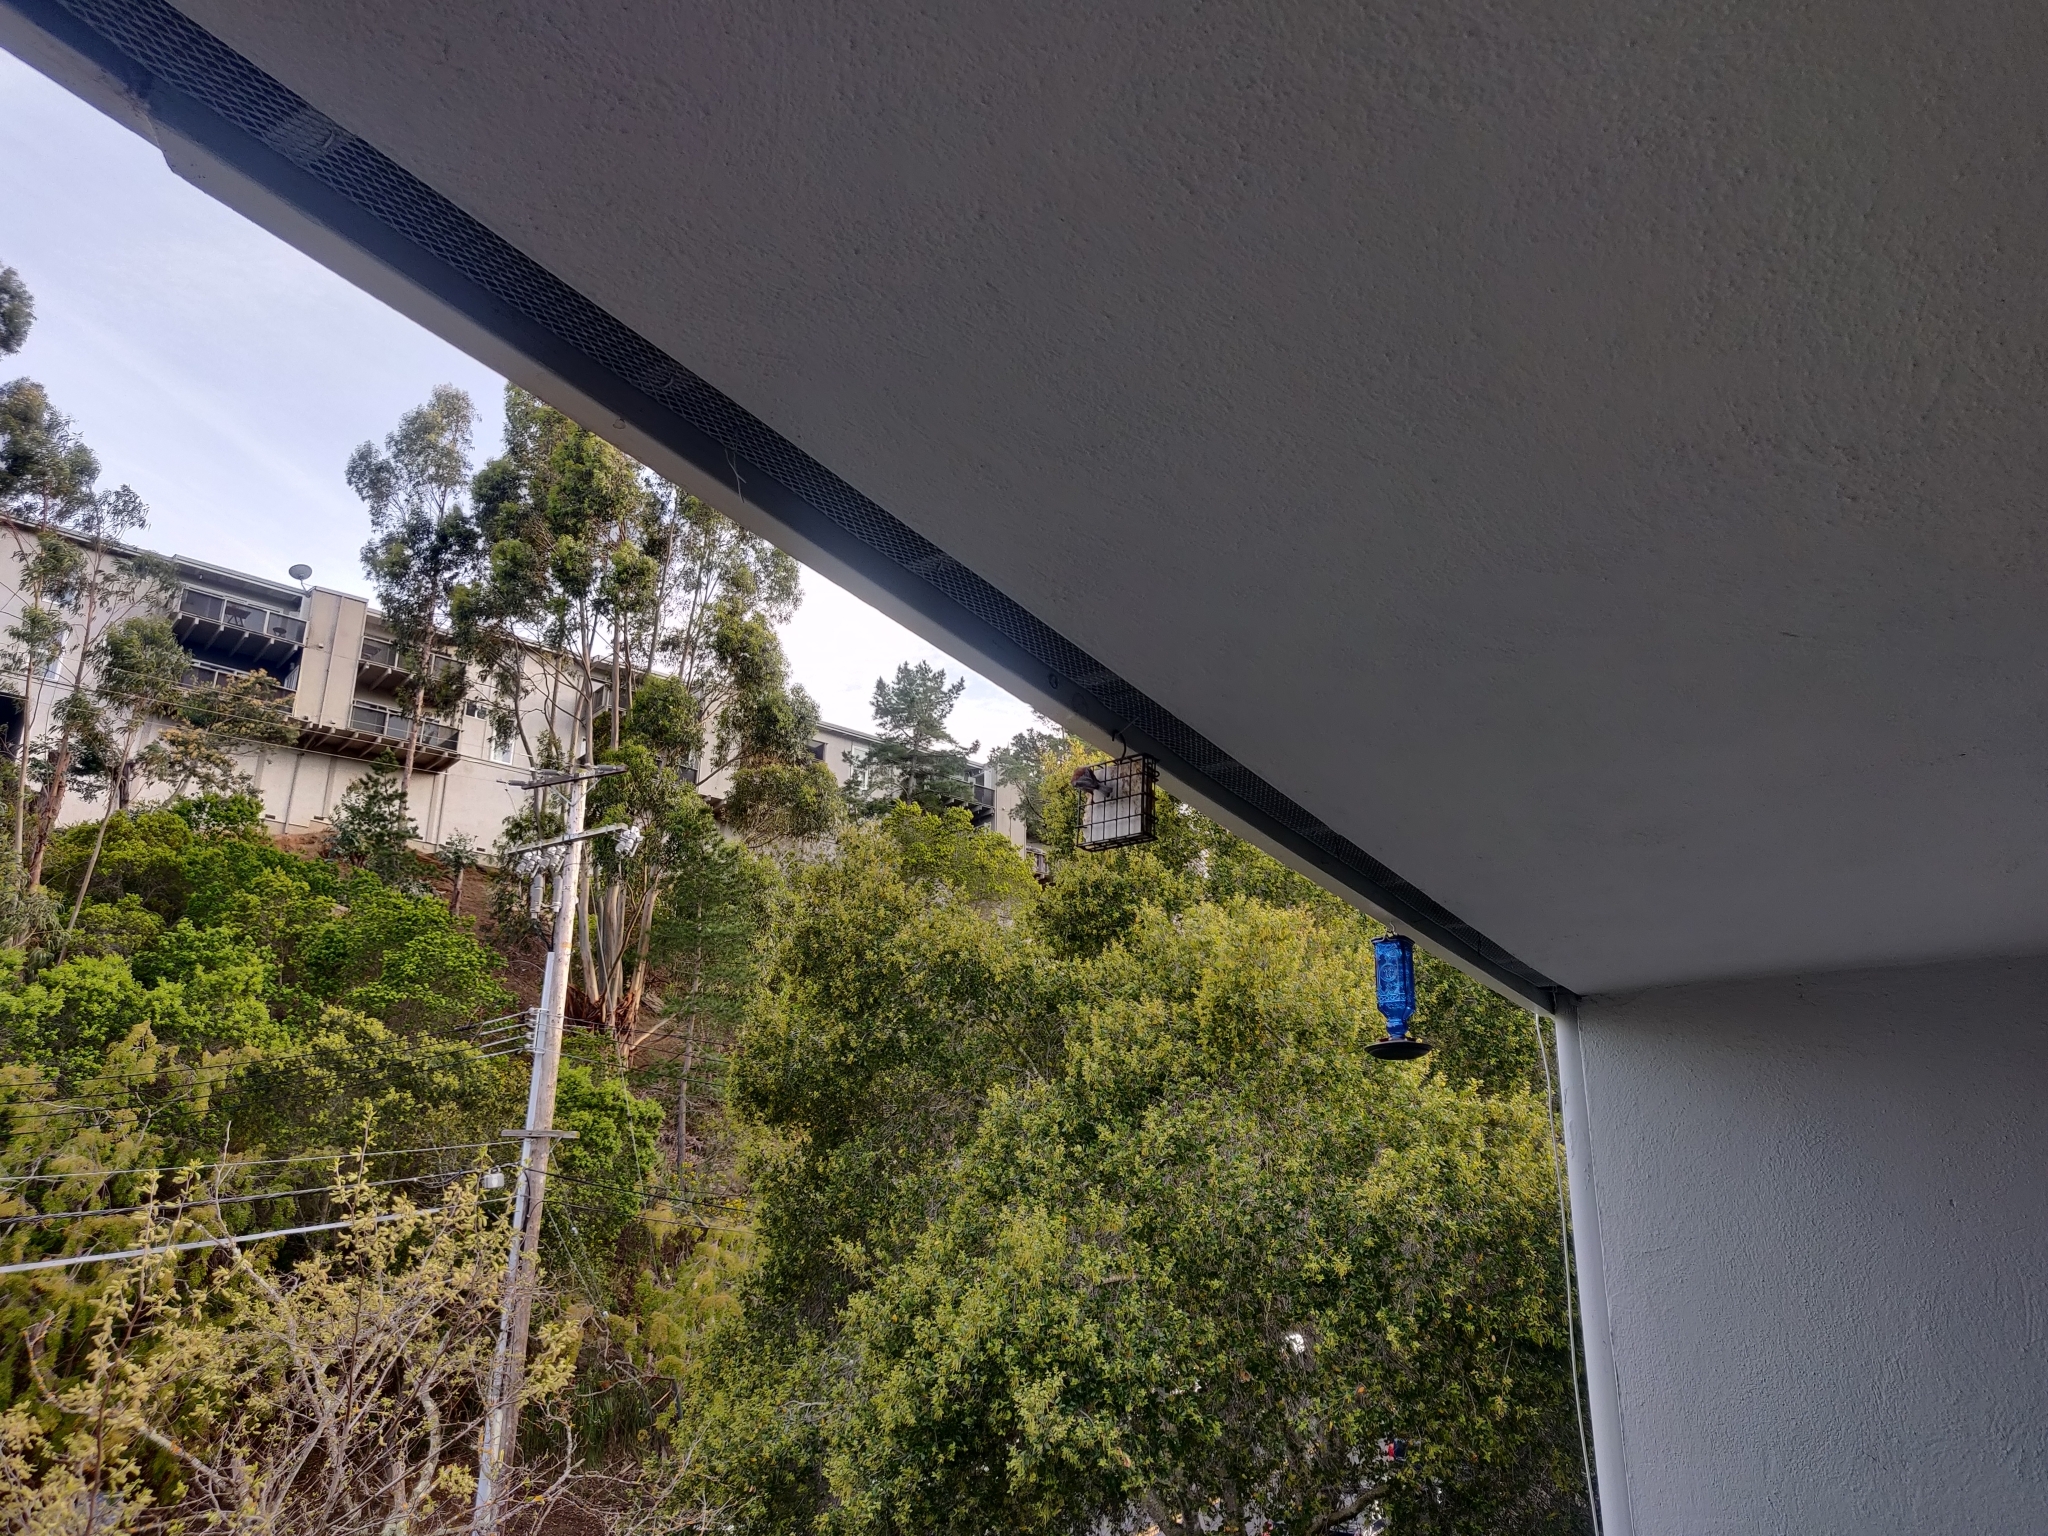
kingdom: Animalia
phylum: Chordata
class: Aves
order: Passeriformes
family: Paridae
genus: Poecile
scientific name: Poecile rufescens
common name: Chestnut-backed chickadee
